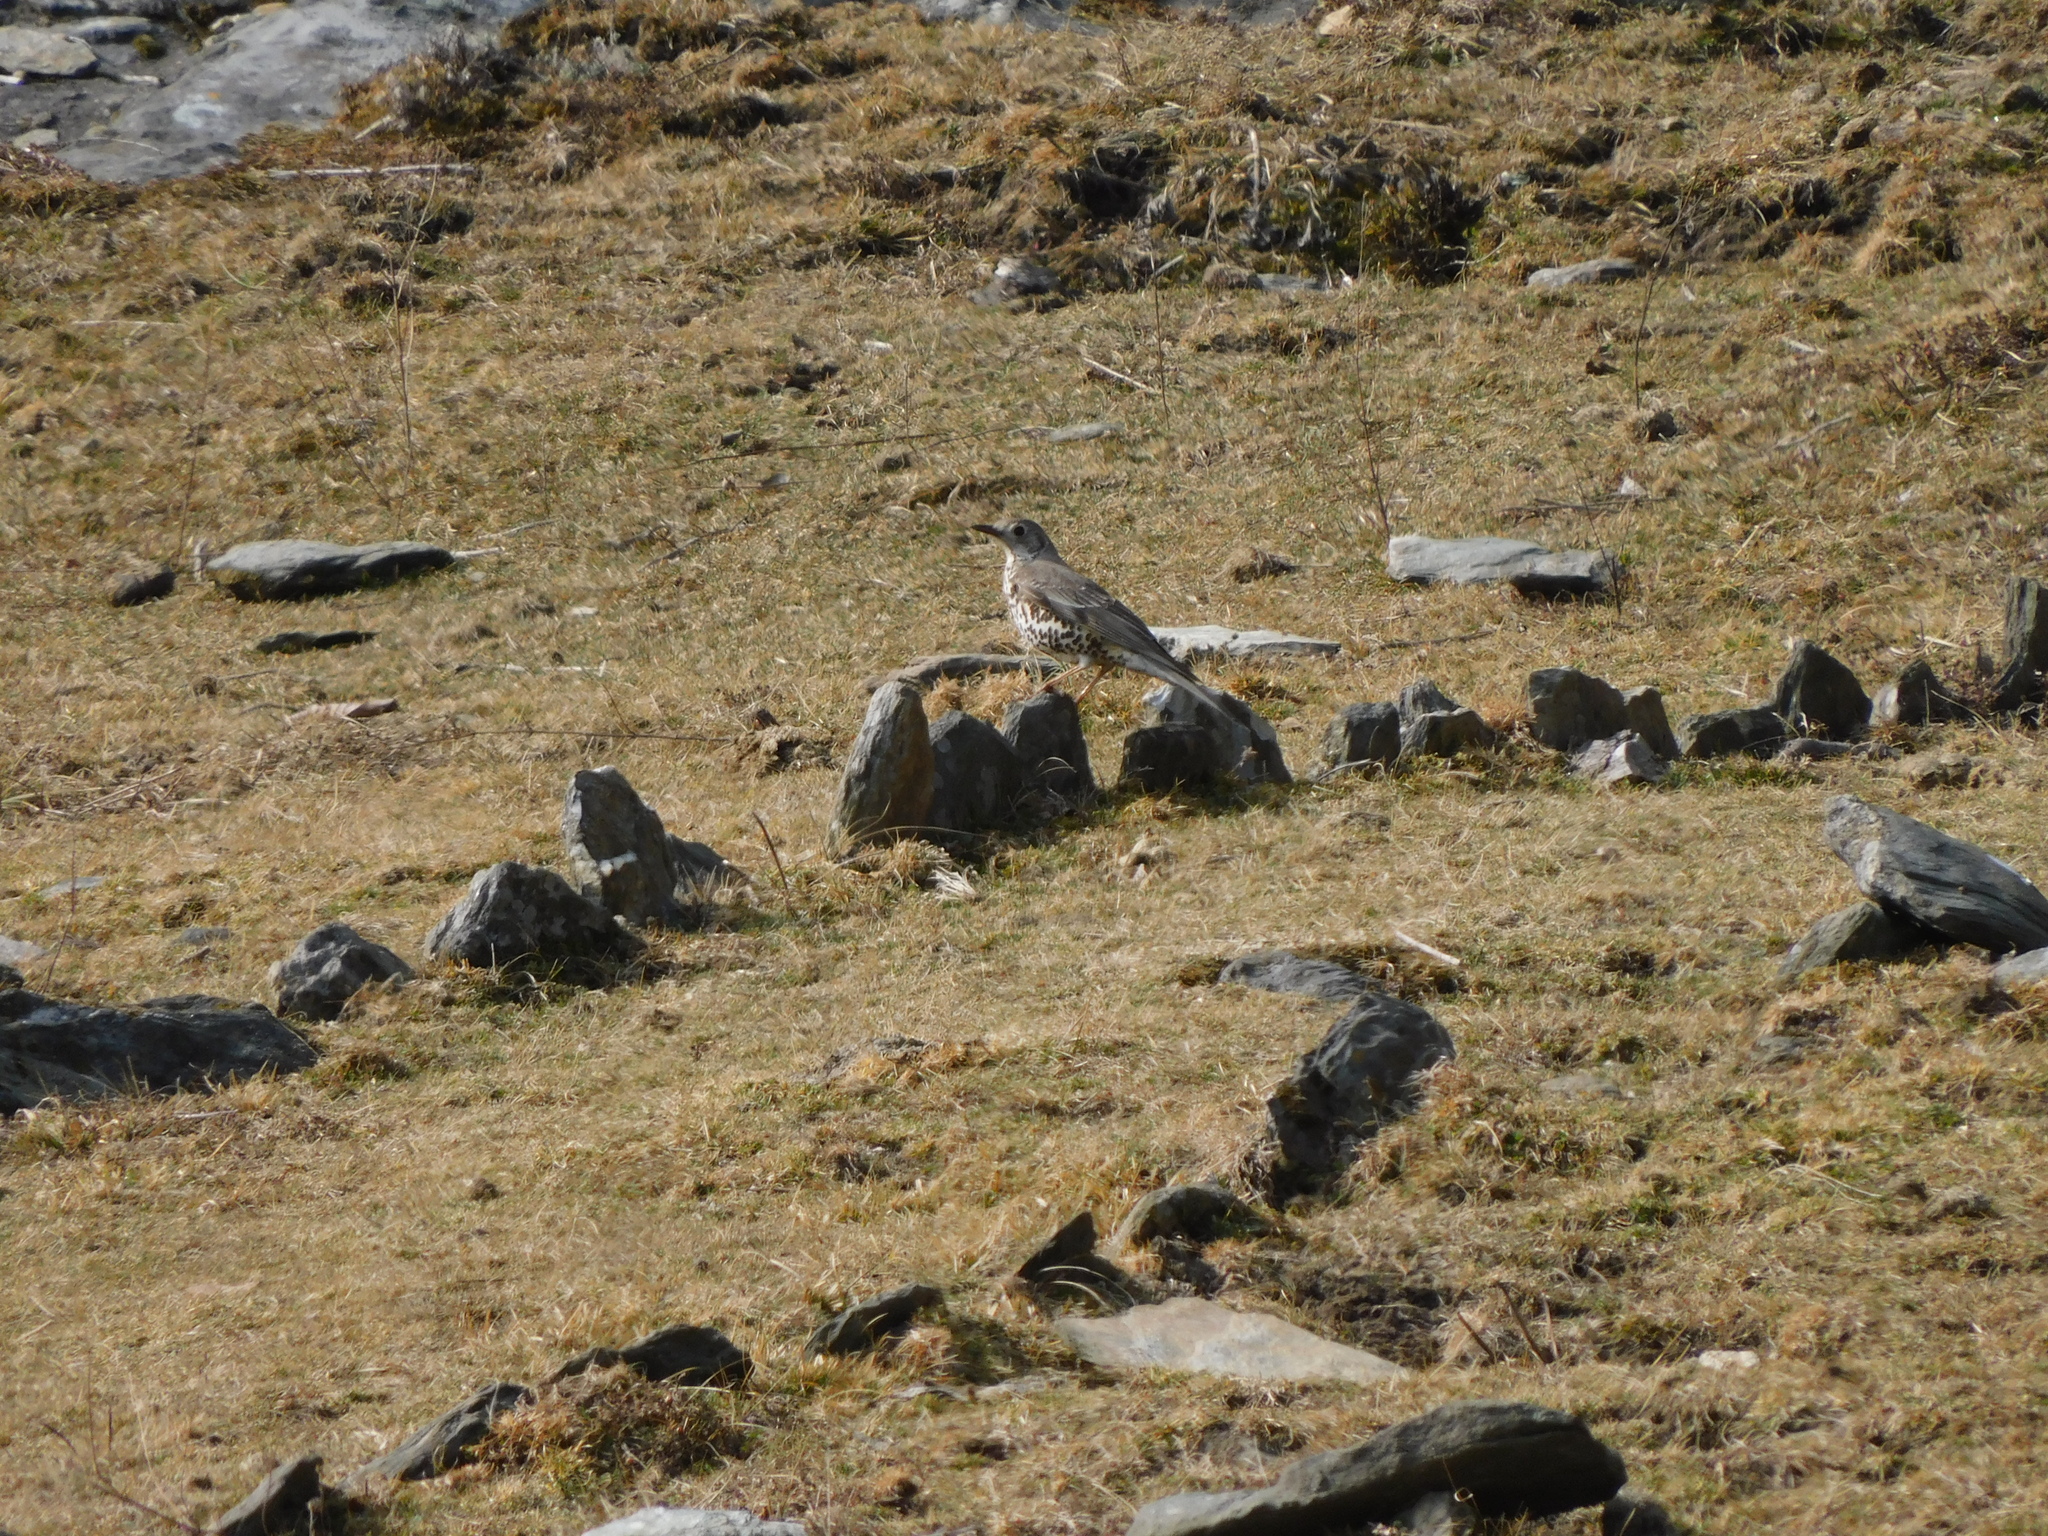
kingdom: Animalia
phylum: Chordata
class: Aves
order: Passeriformes
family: Turdidae
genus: Turdus
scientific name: Turdus viscivorus
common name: Mistle thrush
